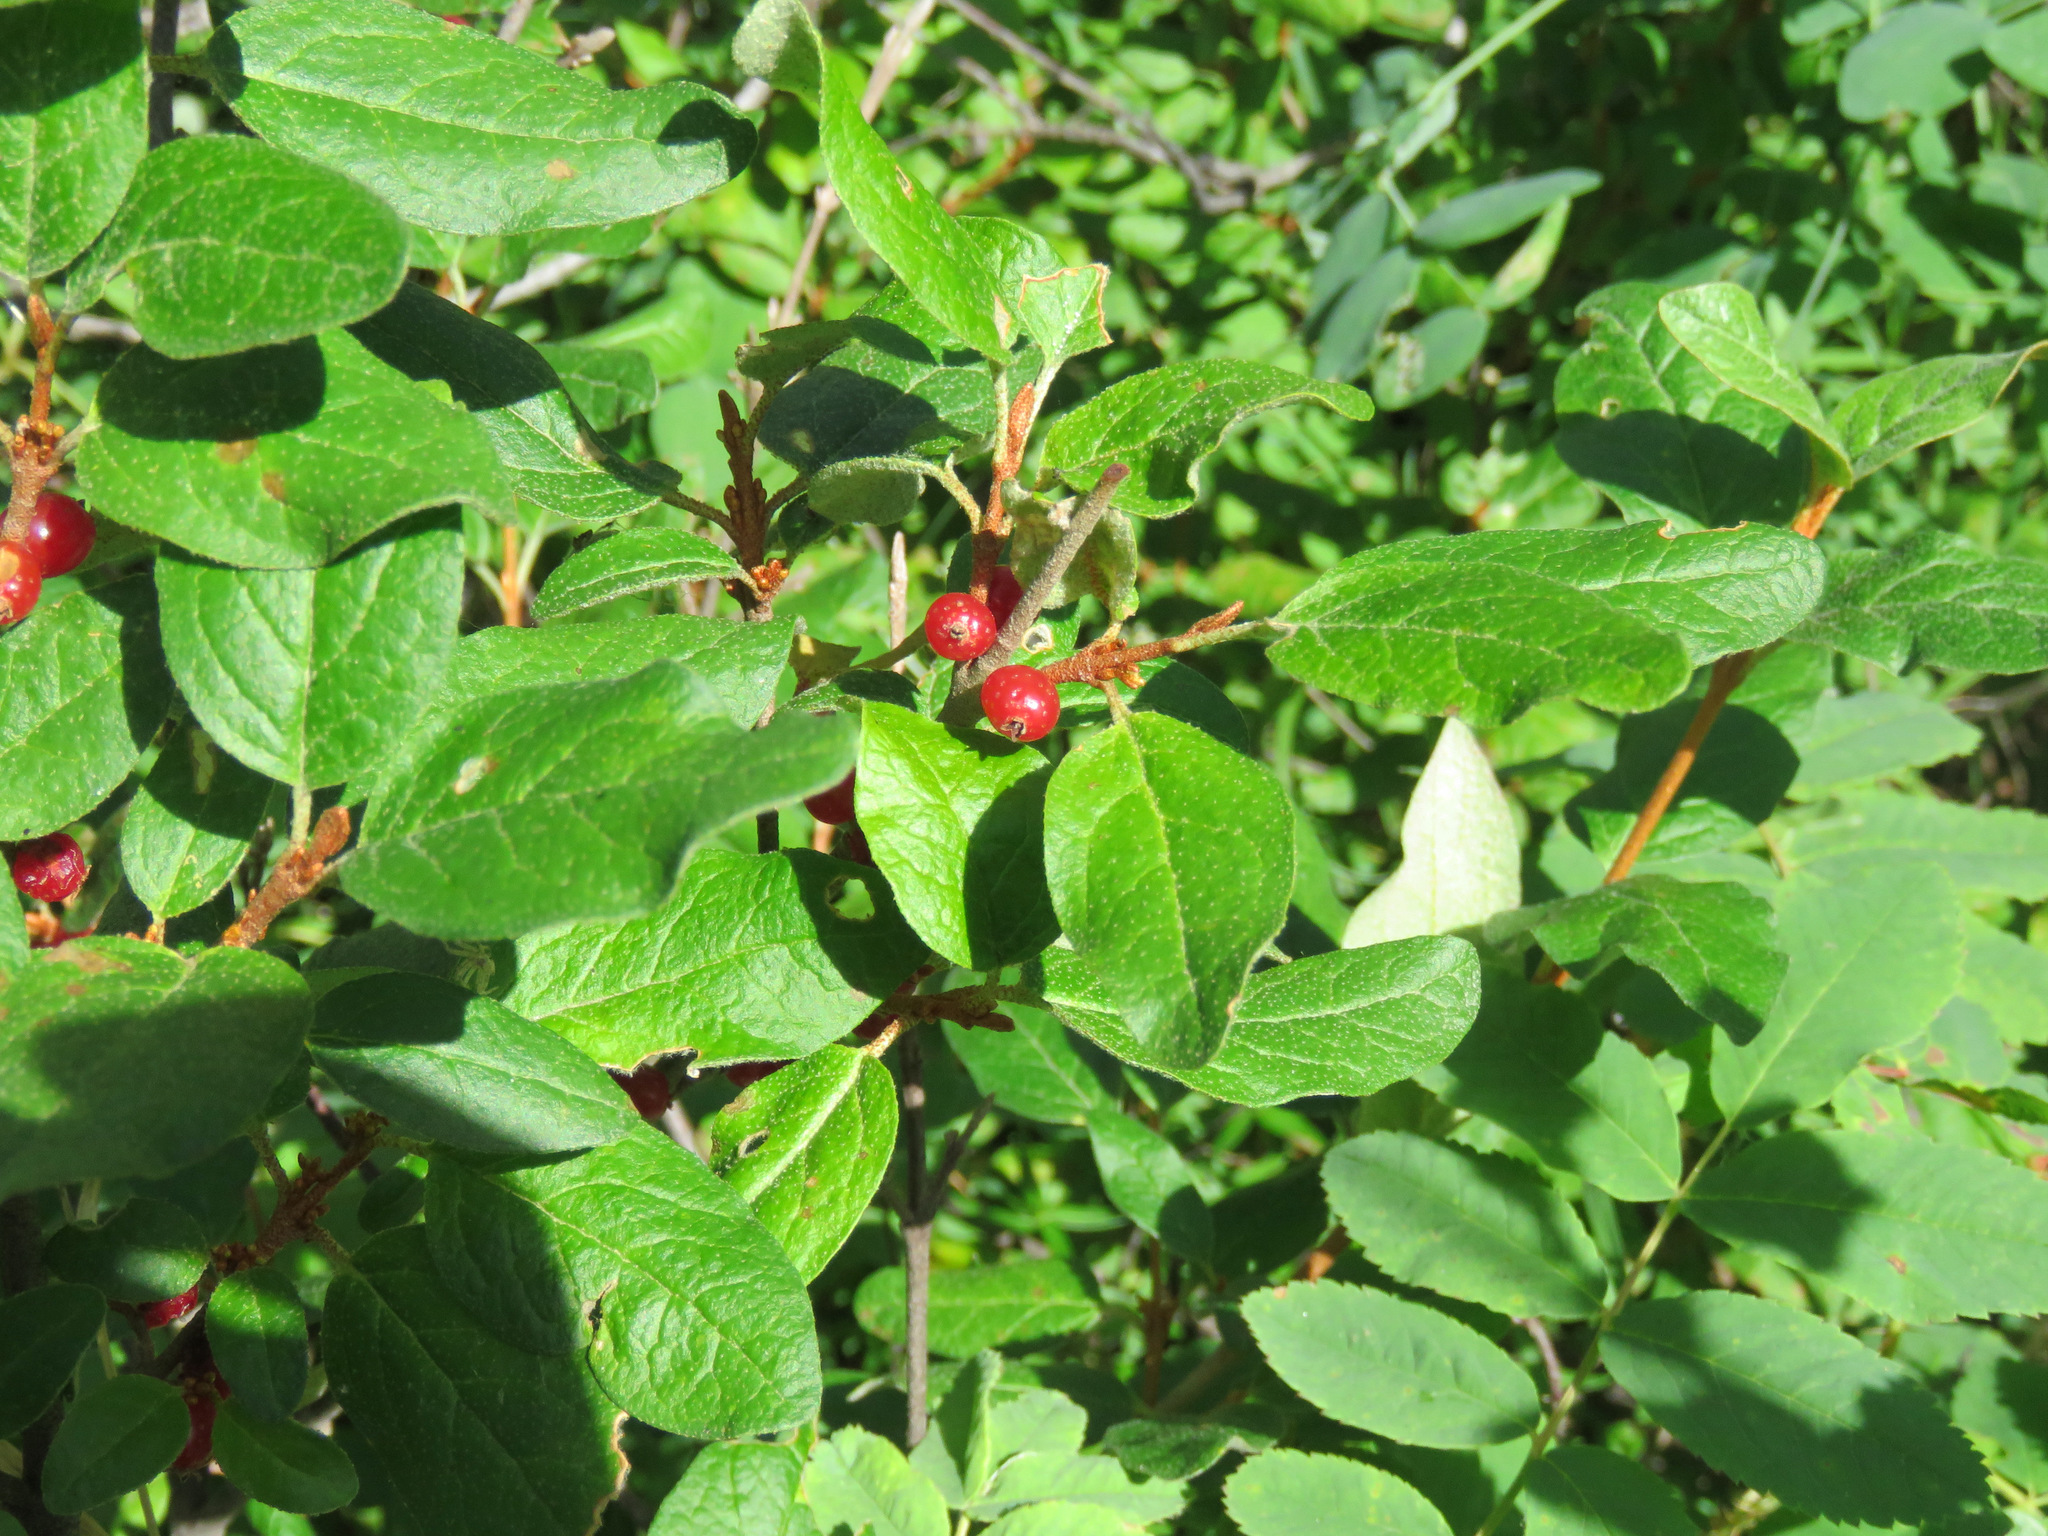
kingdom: Plantae
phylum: Tracheophyta
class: Magnoliopsida
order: Rosales
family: Elaeagnaceae
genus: Shepherdia
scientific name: Shepherdia canadensis
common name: Soapberry
